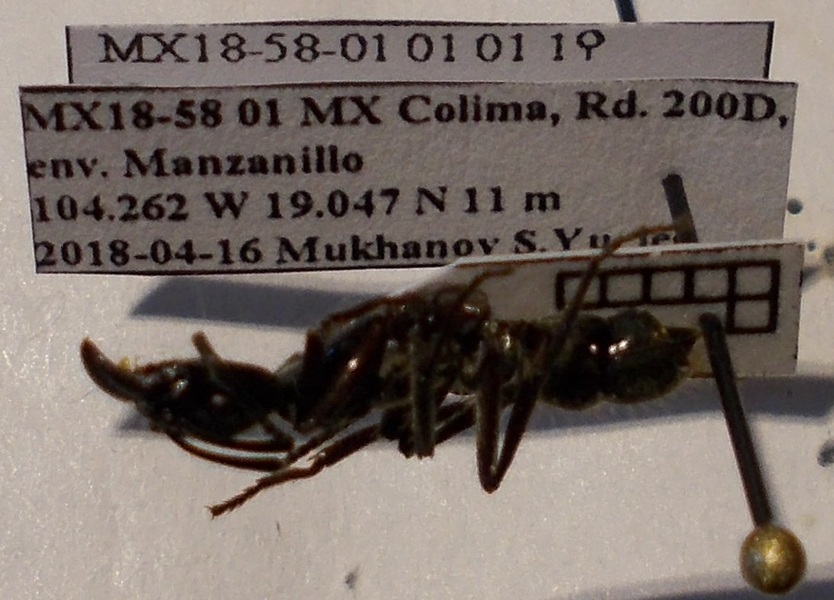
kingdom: Animalia
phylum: Arthropoda
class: Insecta
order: Hymenoptera
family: Formicidae
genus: Pachycondyla
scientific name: Pachycondyla villosa
